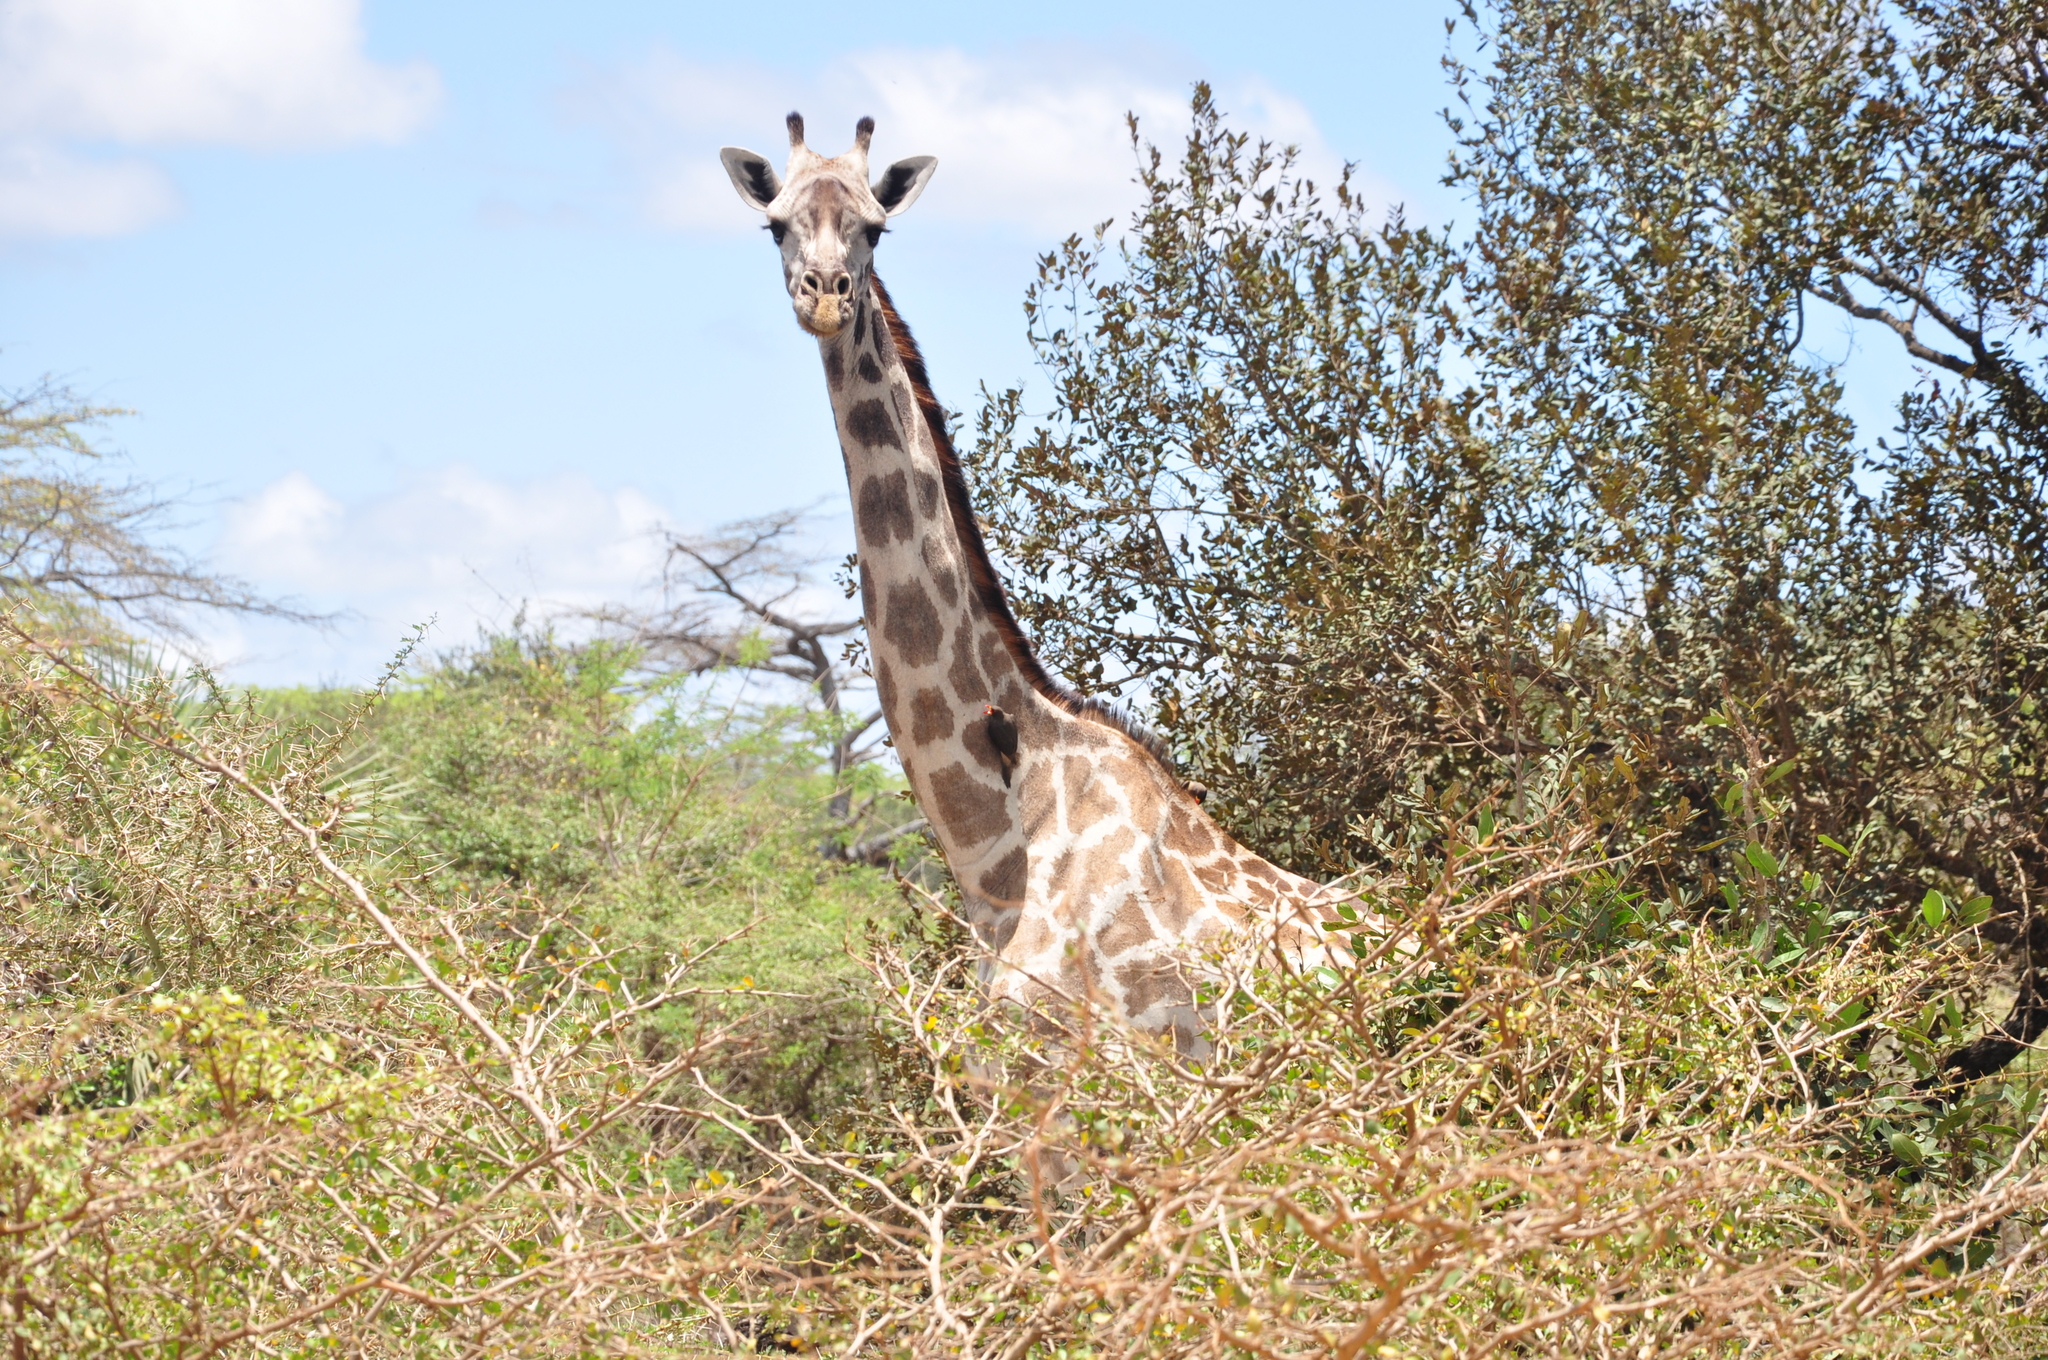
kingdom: Animalia
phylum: Chordata
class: Mammalia
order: Artiodactyla
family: Giraffidae
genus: Giraffa
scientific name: Giraffa tippelskirchi
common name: Masai giraffe
